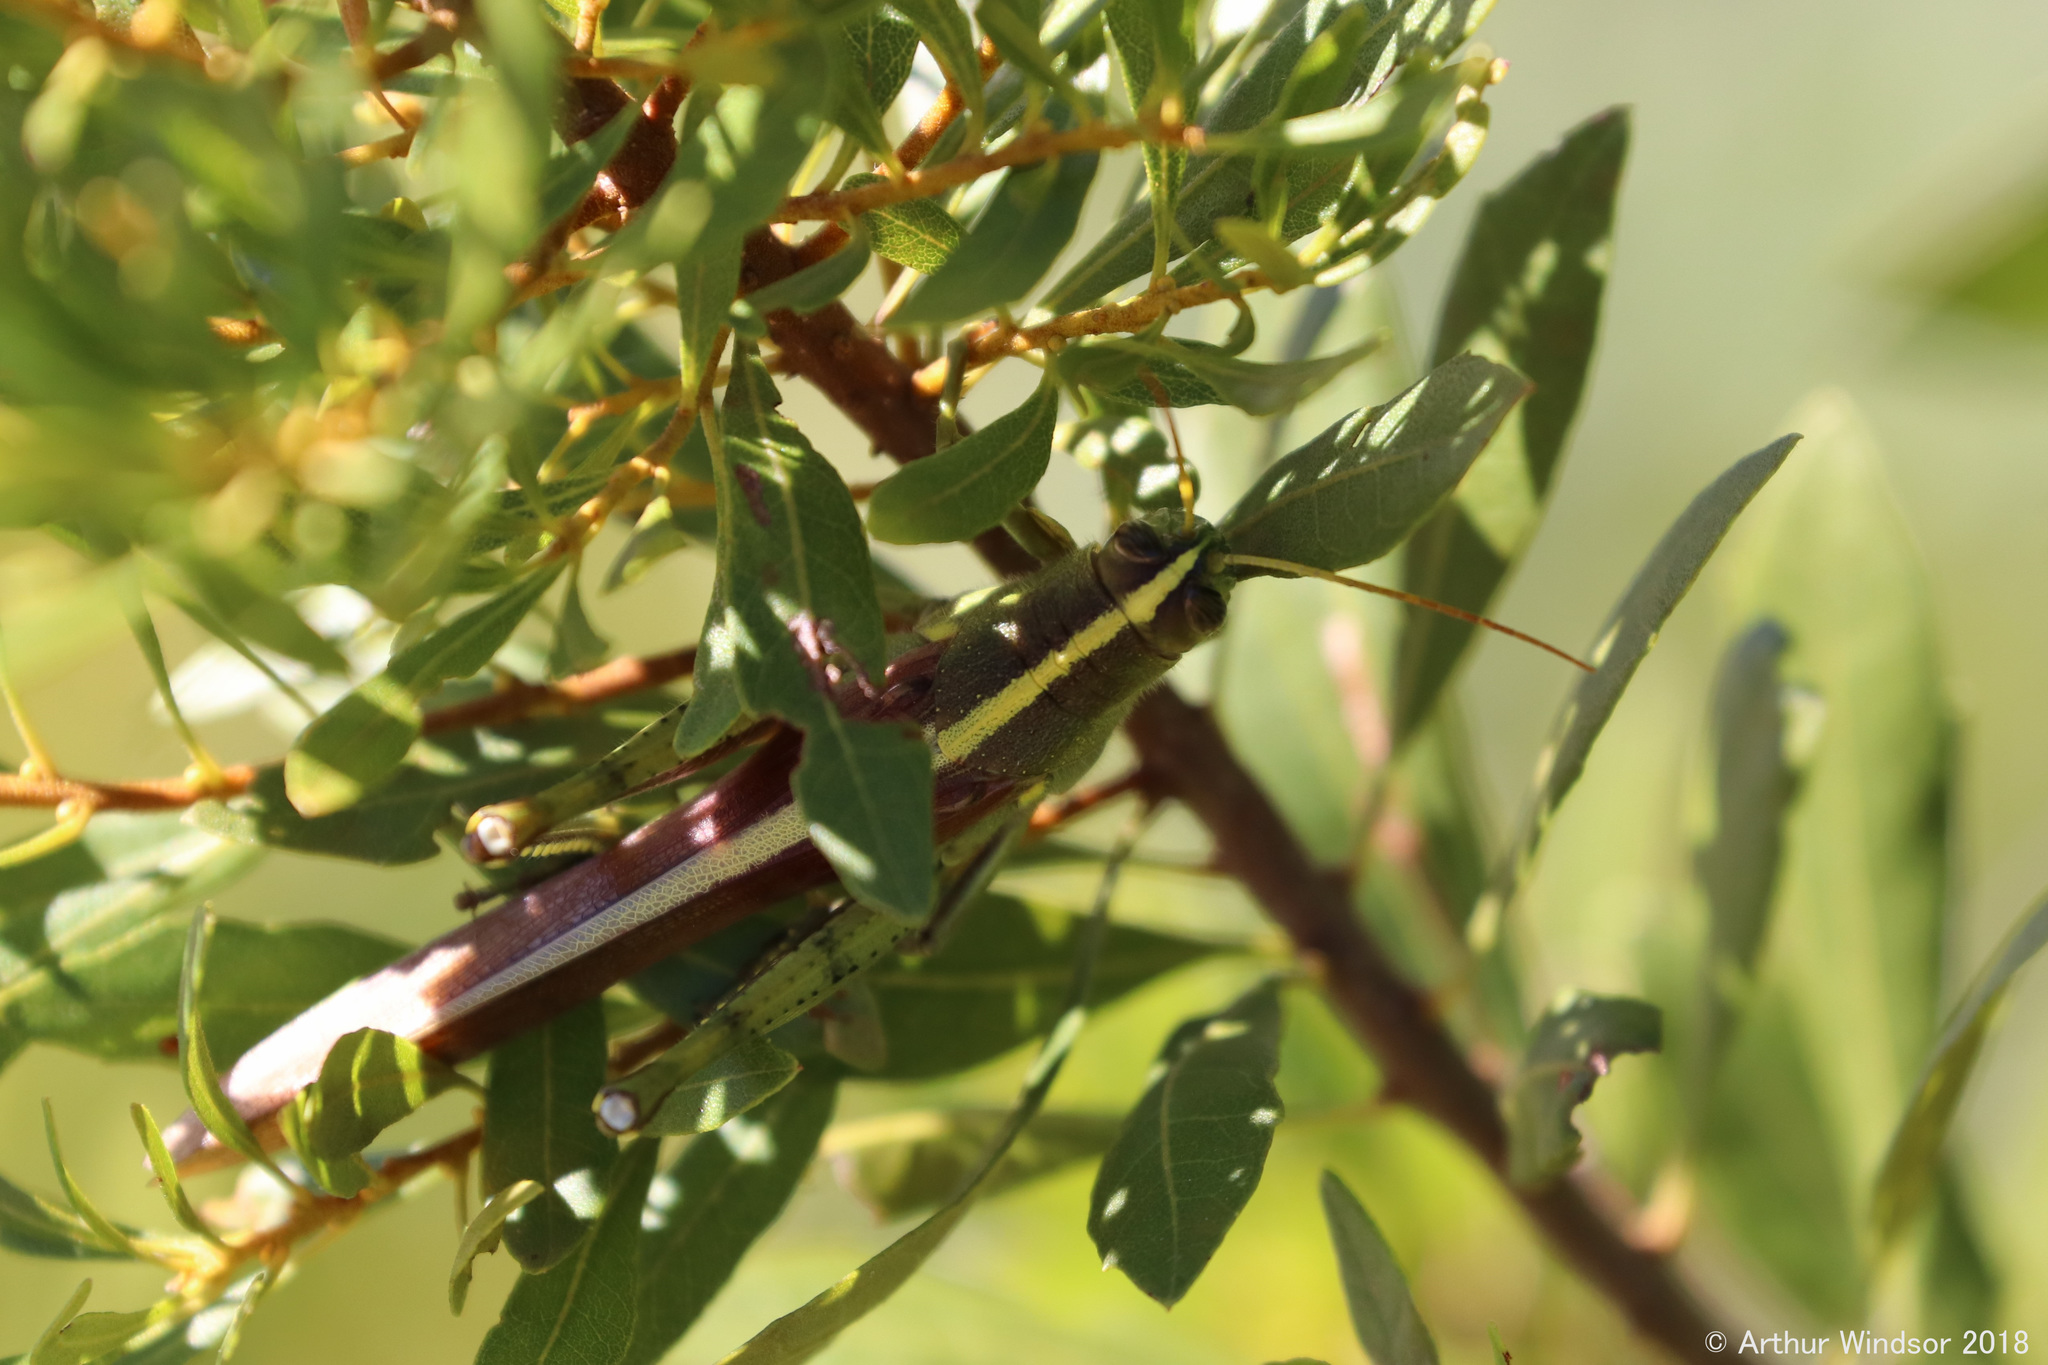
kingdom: Animalia
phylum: Arthropoda
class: Insecta
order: Orthoptera
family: Acrididae
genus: Schistocerca
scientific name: Schistocerca obscura
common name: Obscure bird grasshopper
